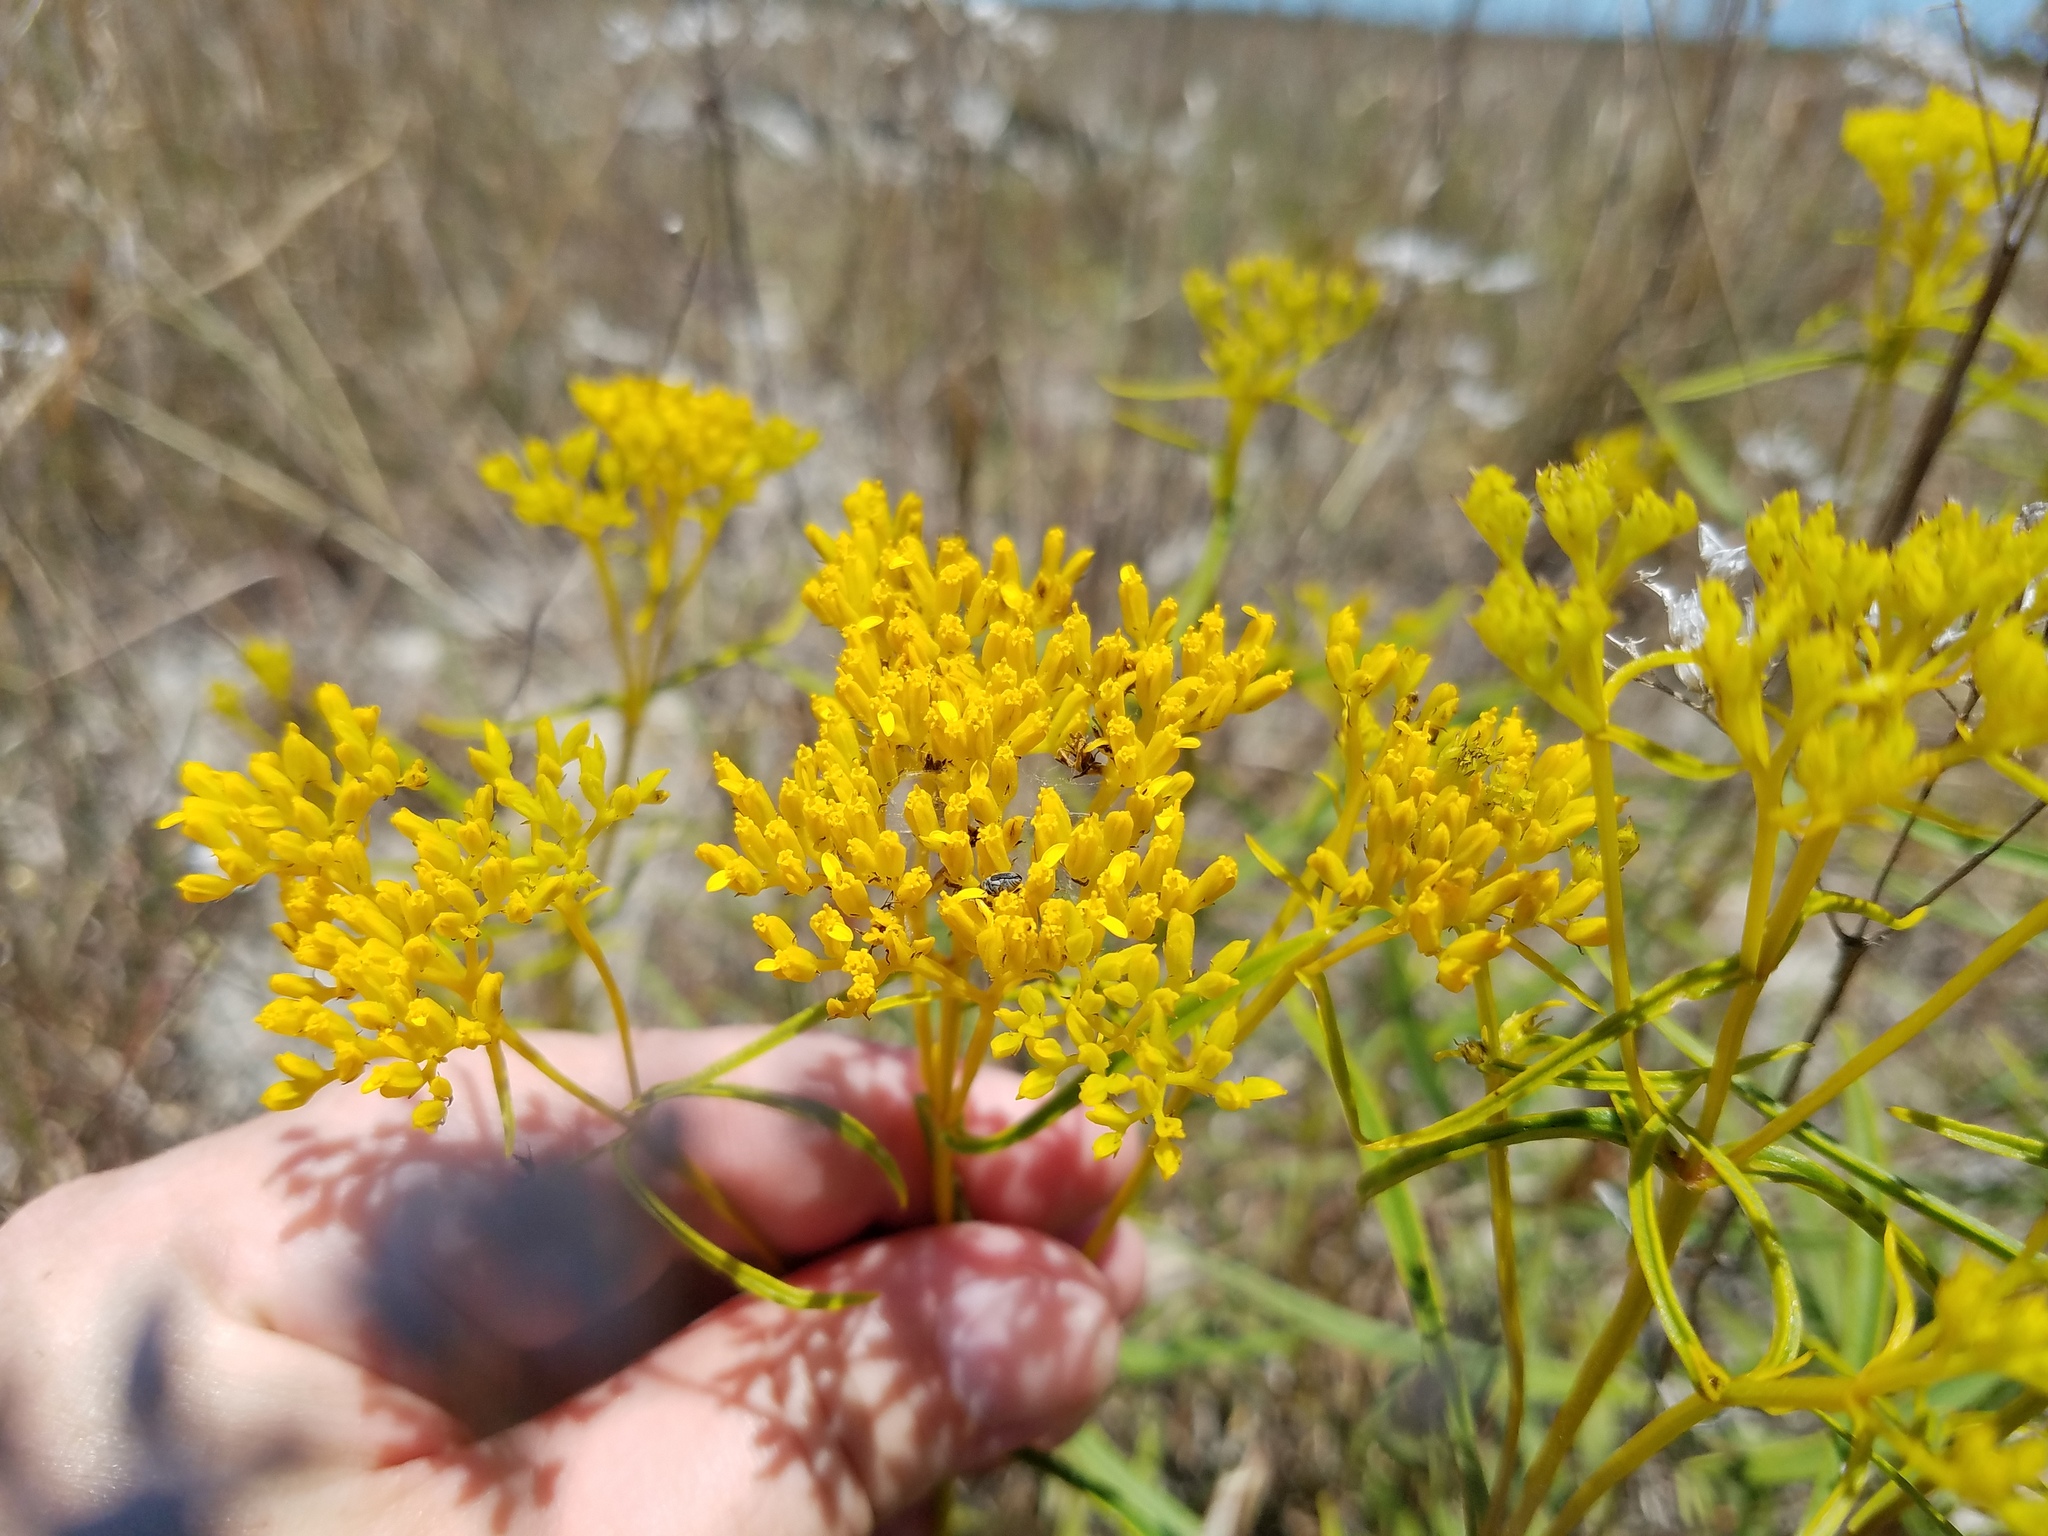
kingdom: Plantae
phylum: Tracheophyta
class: Magnoliopsida
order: Asterales
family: Asteraceae
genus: Flaveria
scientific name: Flaveria linearis
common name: Yellowtop
